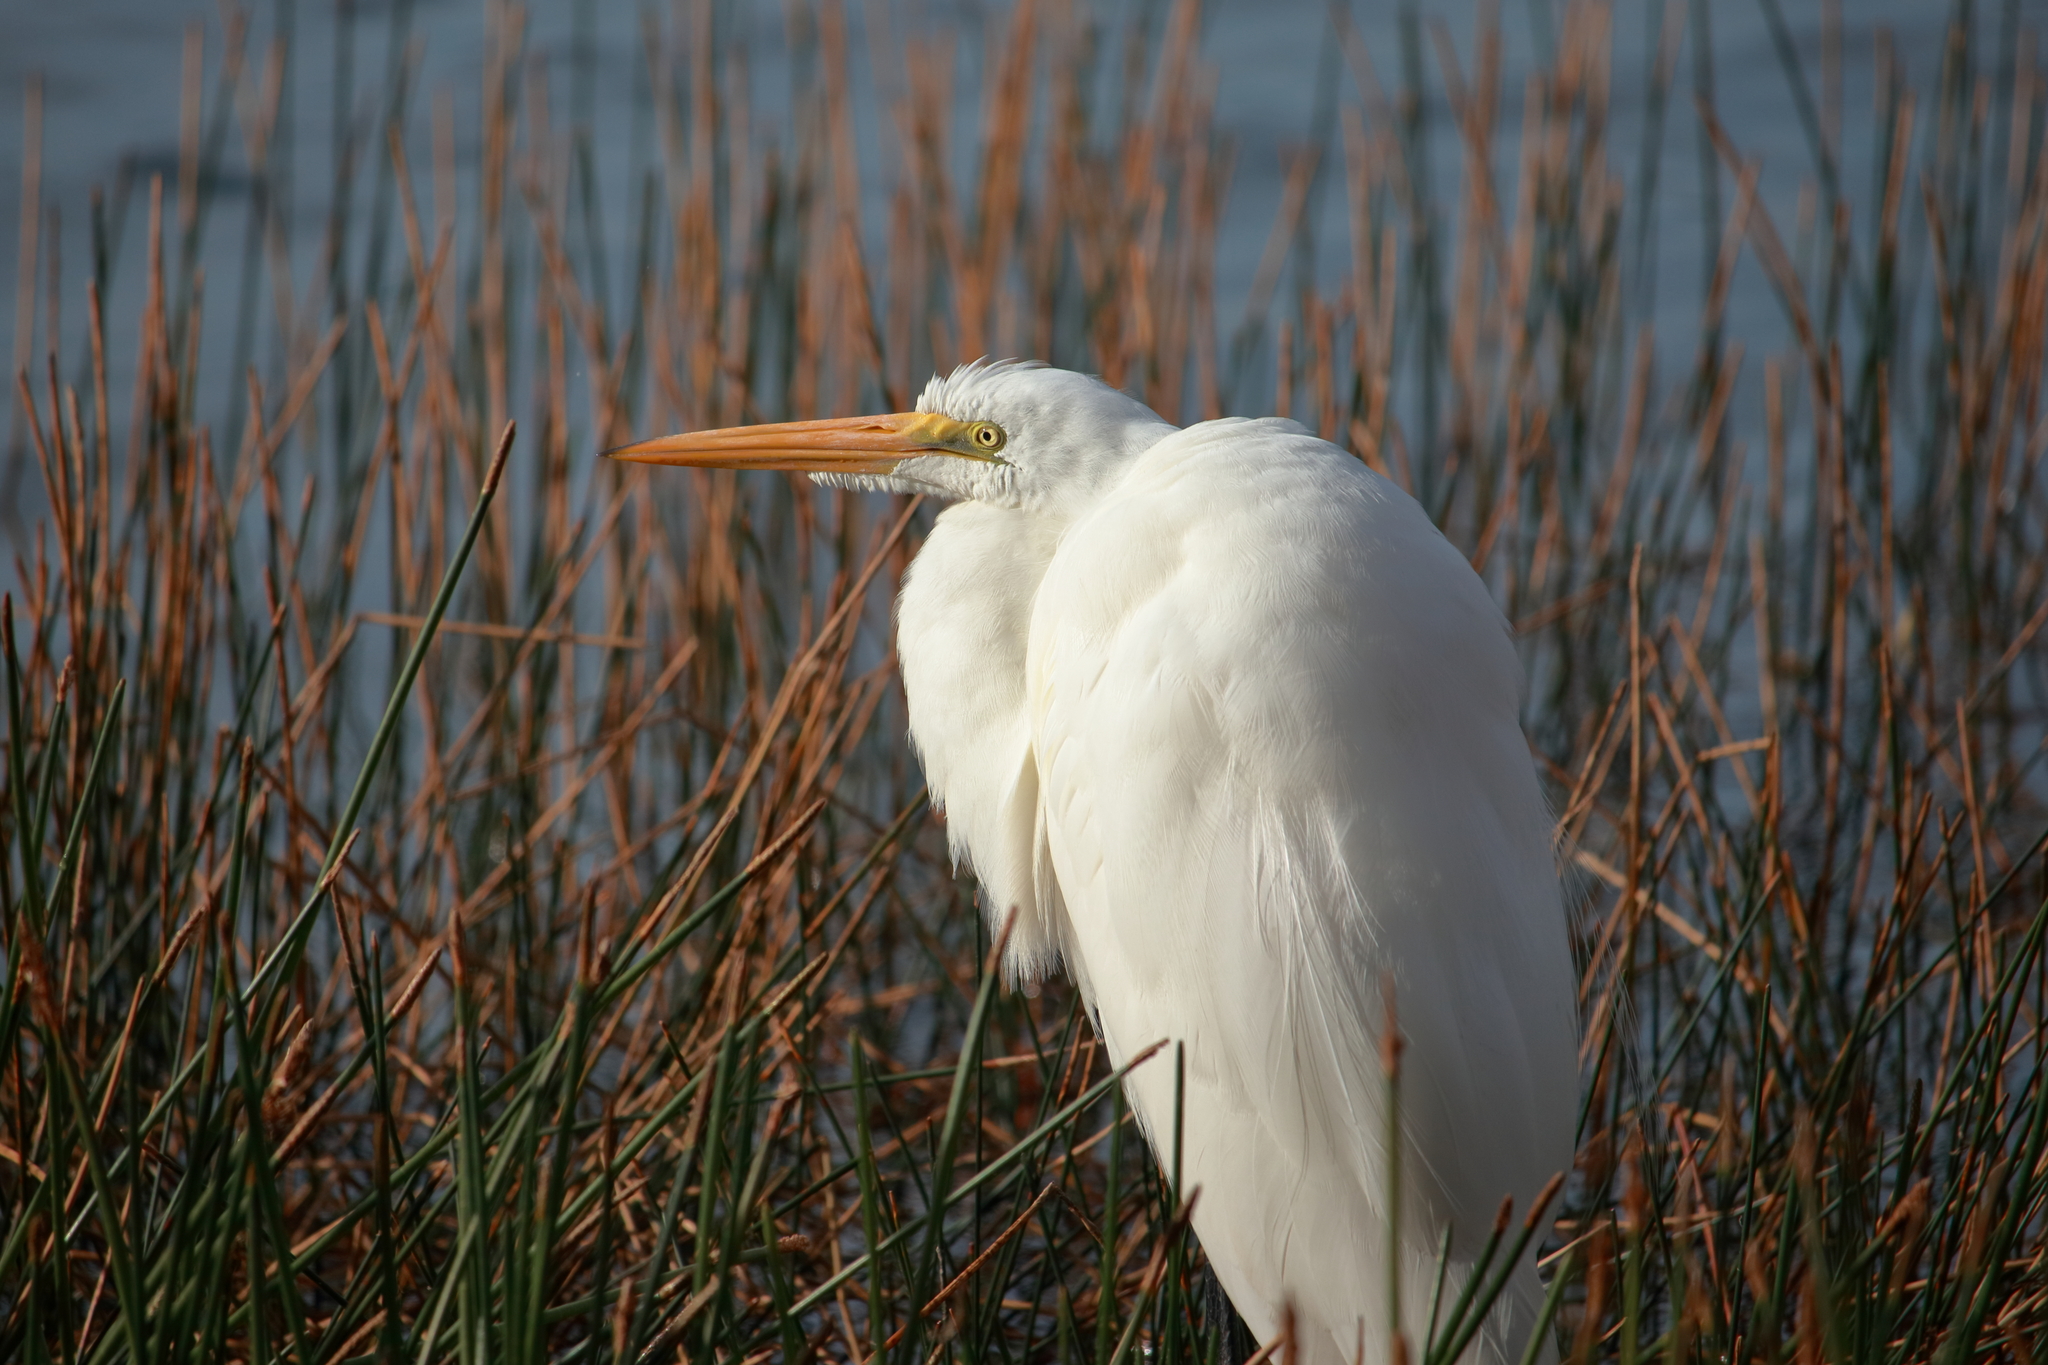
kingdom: Animalia
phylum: Chordata
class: Aves
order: Pelecaniformes
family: Ardeidae
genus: Ardea
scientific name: Ardea alba
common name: Great egret
